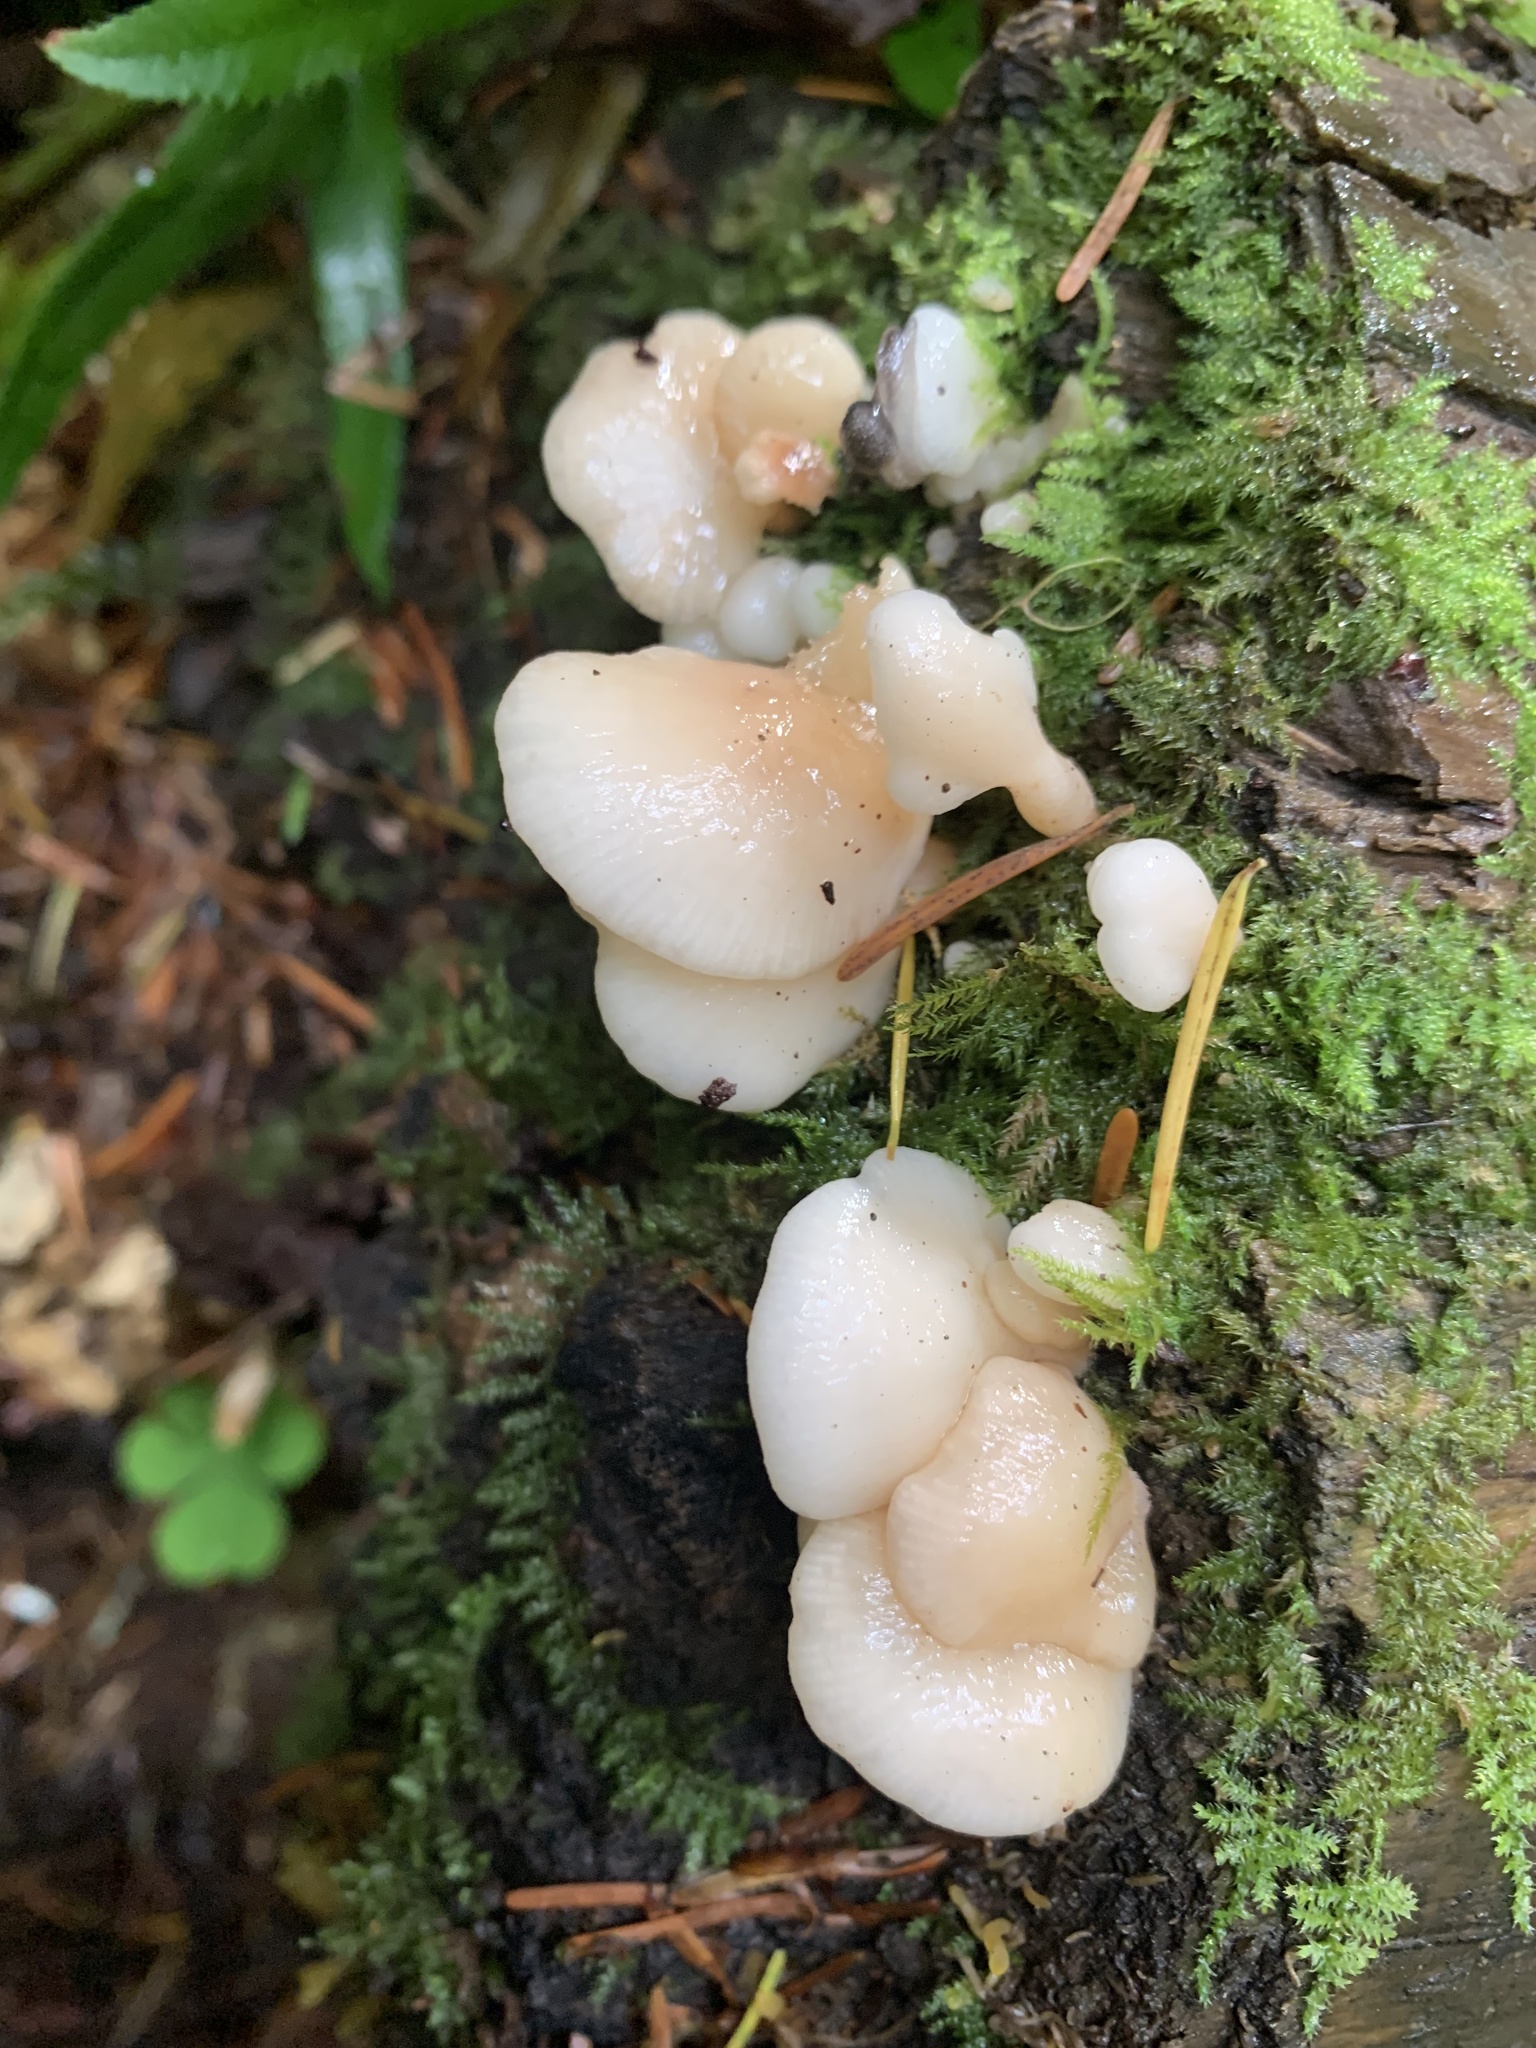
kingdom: Fungi
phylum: Basidiomycota
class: Agaricomycetes
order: Agaricales
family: Mycenaceae
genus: Panellus
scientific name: Panellus longinquus
